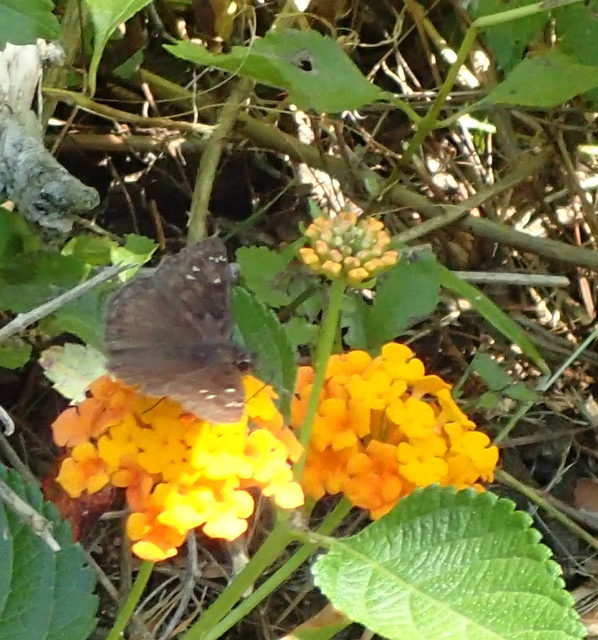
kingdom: Animalia
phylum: Arthropoda
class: Insecta
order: Lepidoptera
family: Hesperiidae
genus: Erynnis
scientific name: Erynnis horatius
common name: Horace's duskywing
